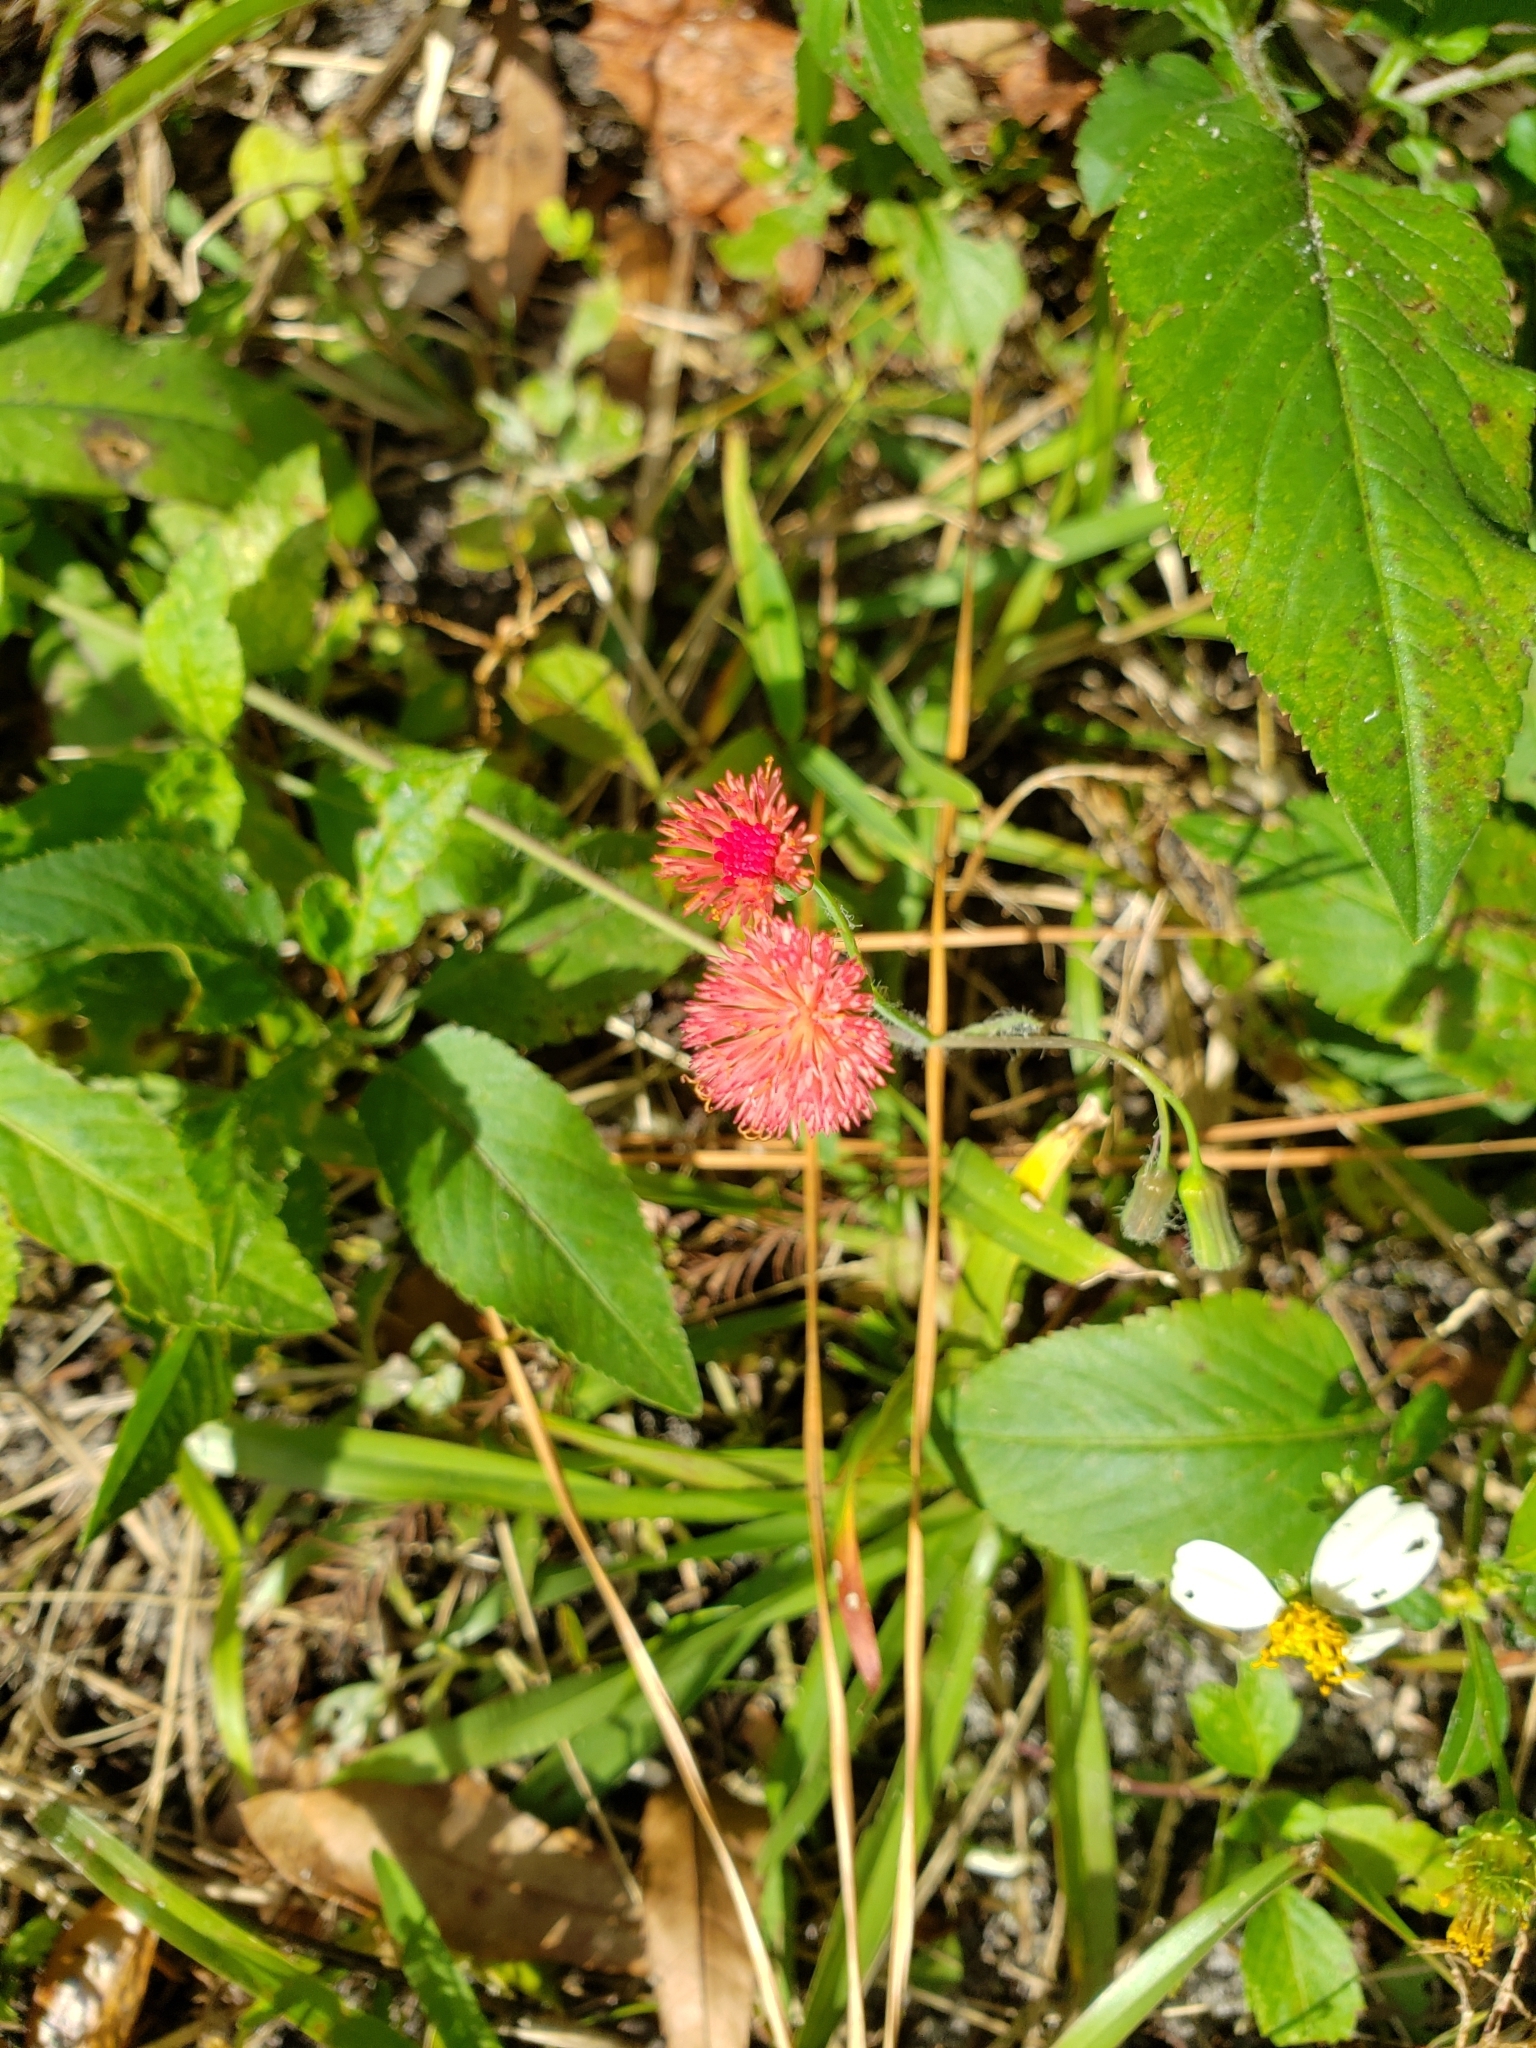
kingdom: Plantae
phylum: Tracheophyta
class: Magnoliopsida
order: Asterales
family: Asteraceae
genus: Emilia
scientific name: Emilia fosbergii
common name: Florida tasselflower
